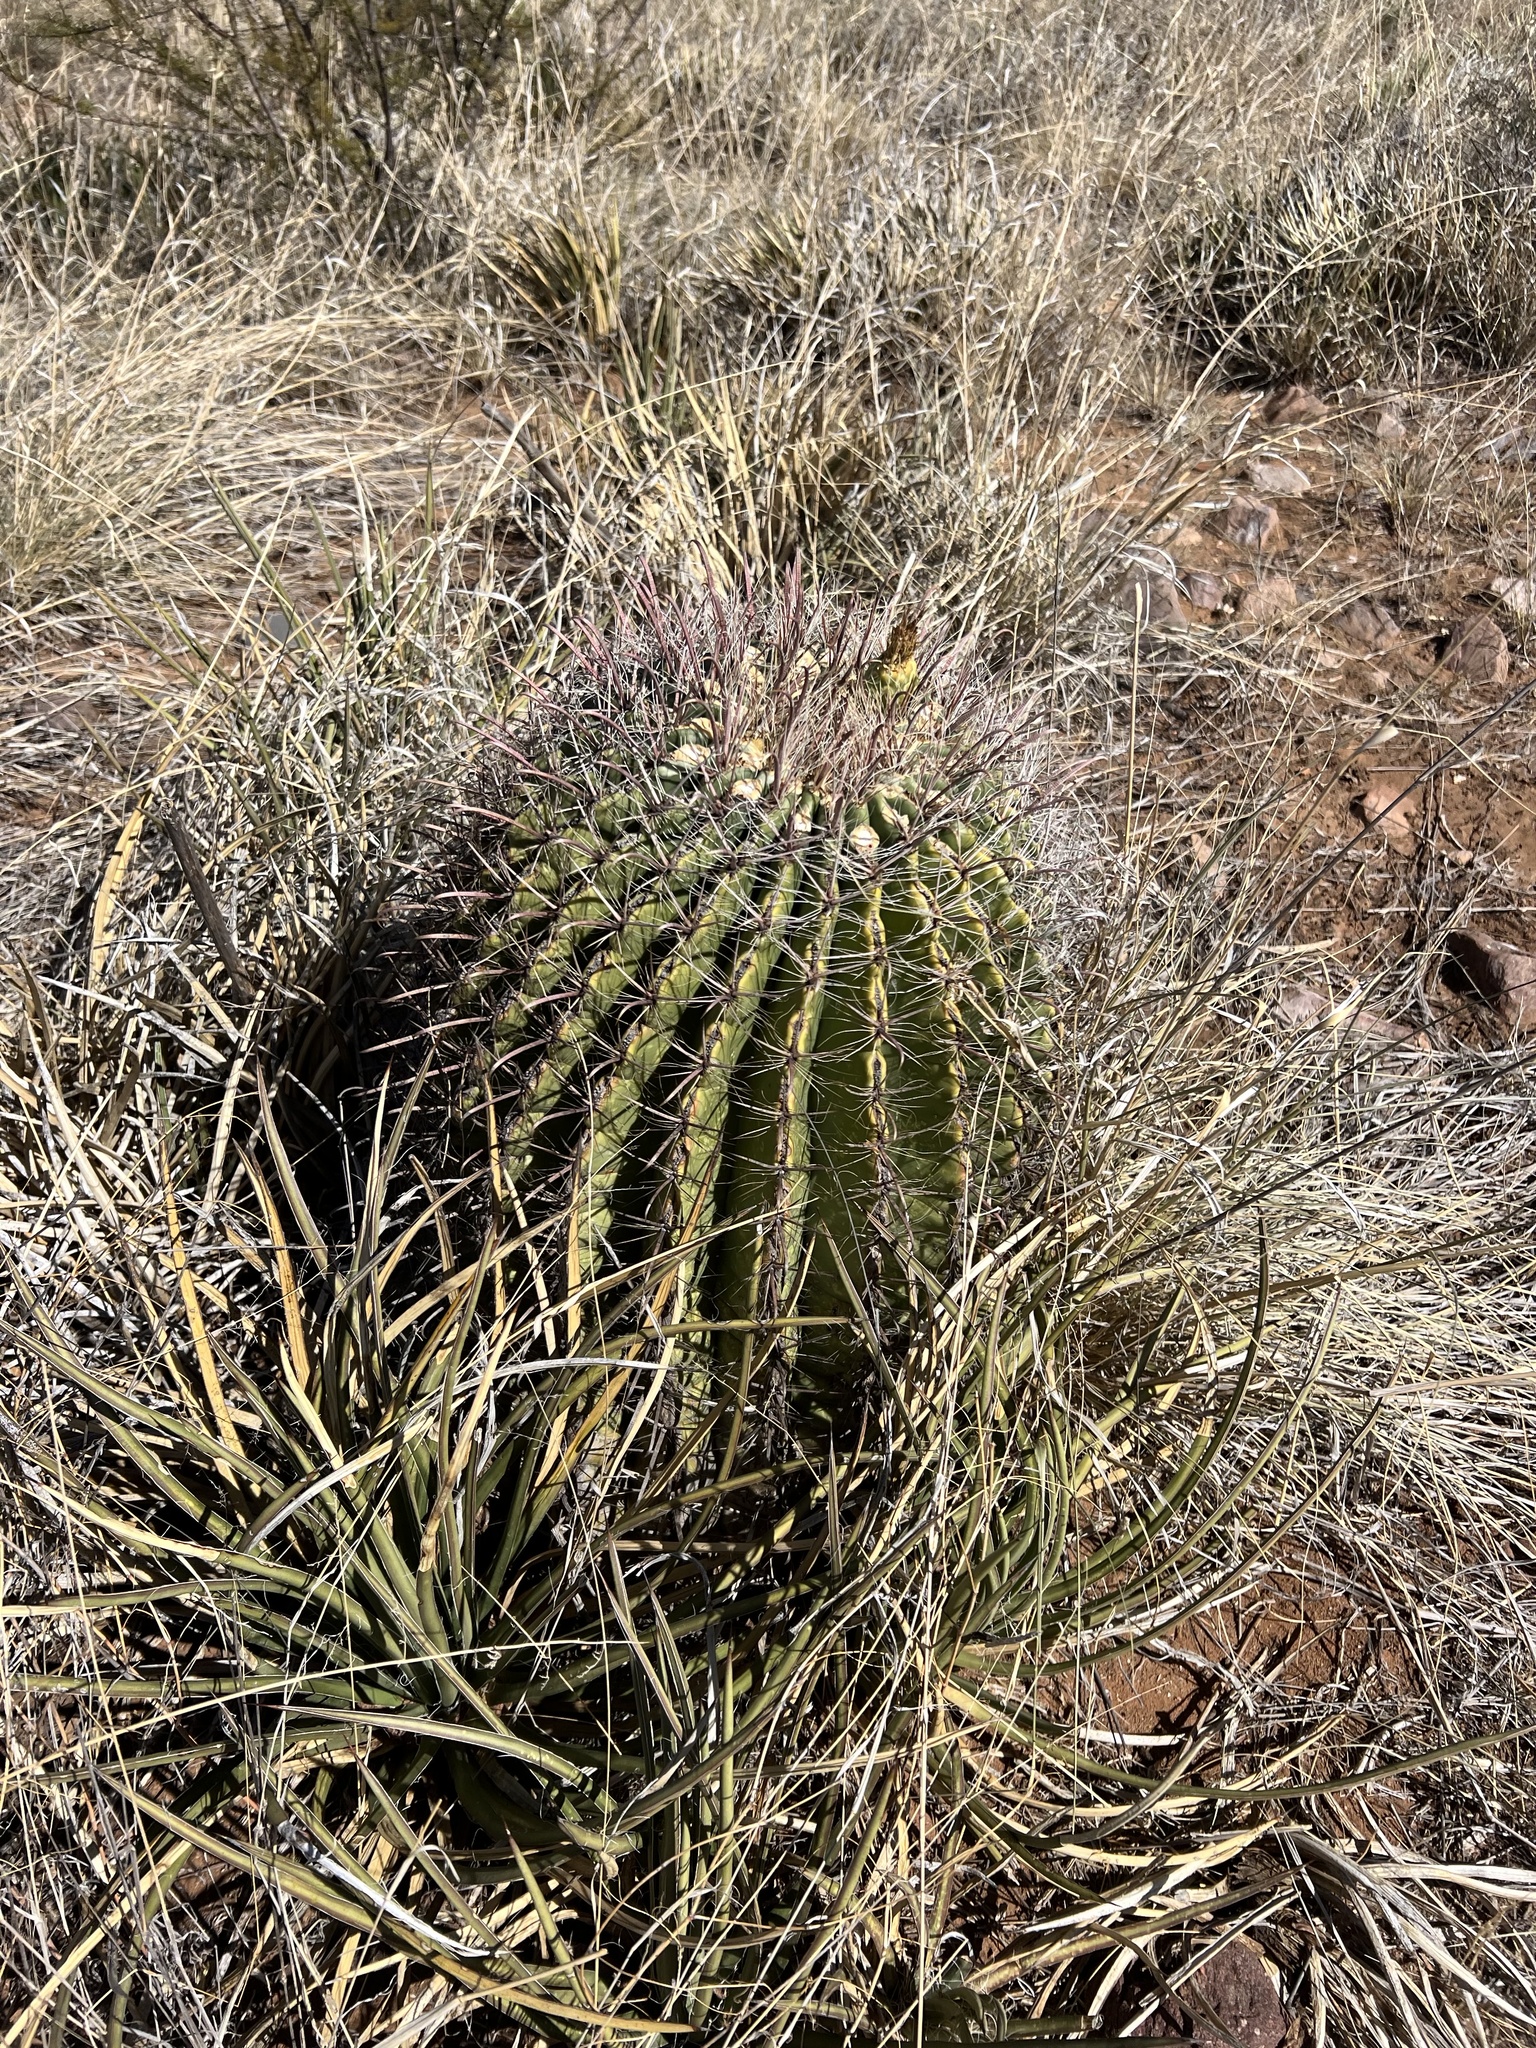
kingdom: Plantae
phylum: Tracheophyta
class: Magnoliopsida
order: Caryophyllales
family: Cactaceae
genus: Ferocactus
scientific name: Ferocactus wislizeni
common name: Candy barrel cactus
